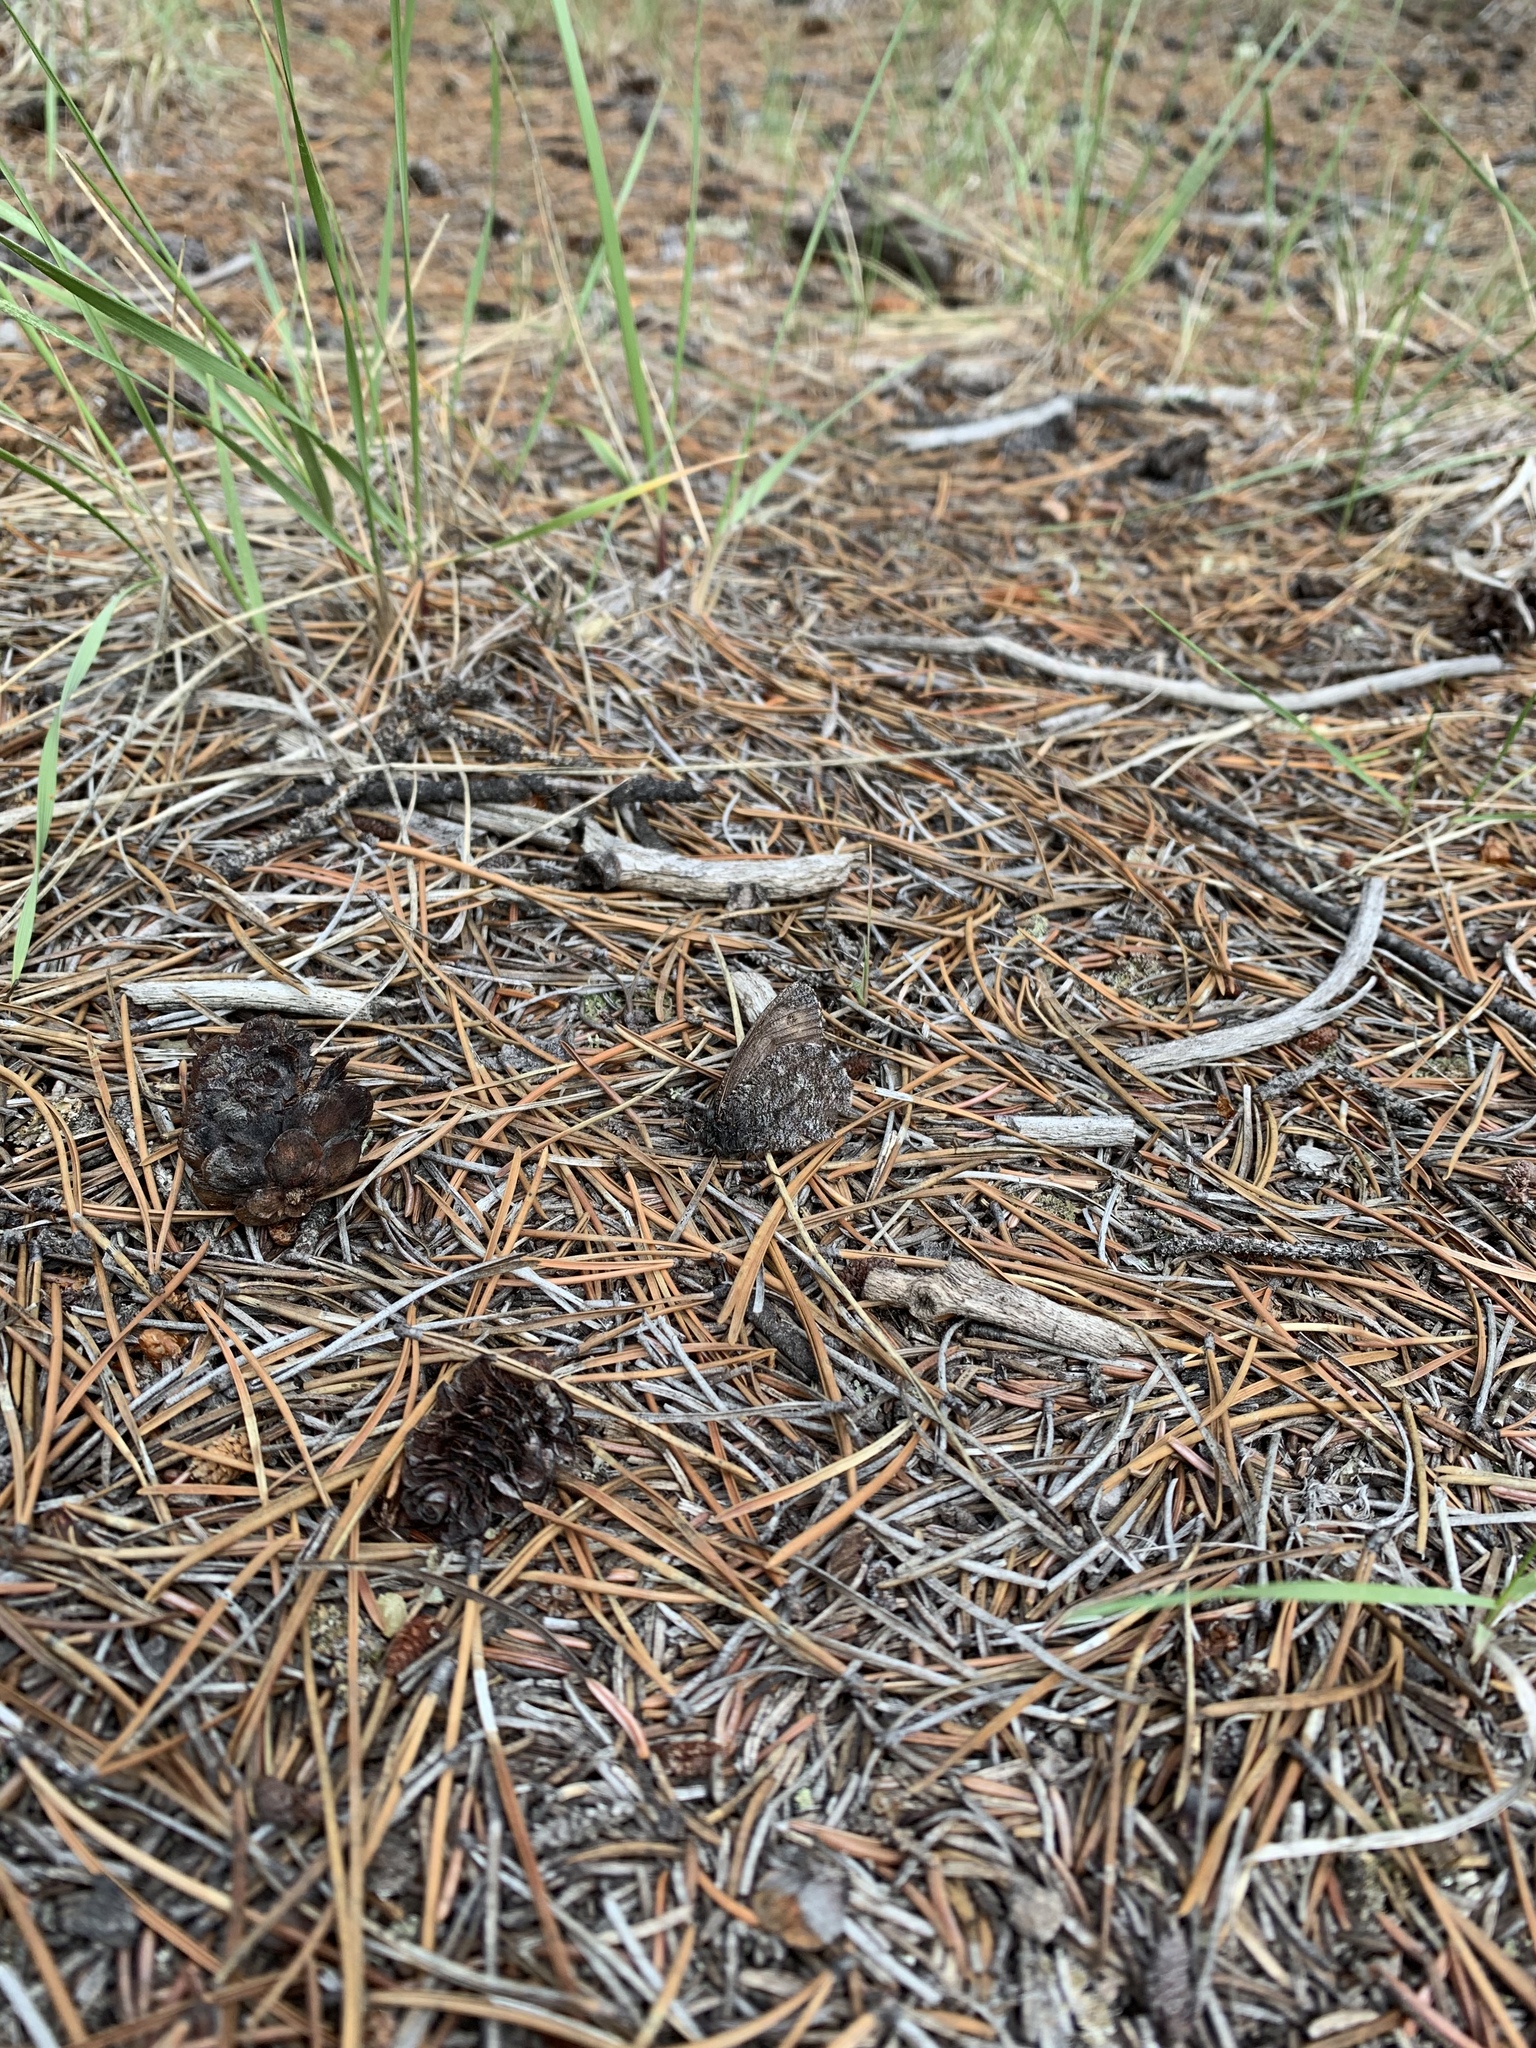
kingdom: Animalia
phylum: Arthropoda
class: Insecta
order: Lepidoptera
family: Nymphalidae
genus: Oeneis
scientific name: Oeneis jutta
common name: Baltic grayling
